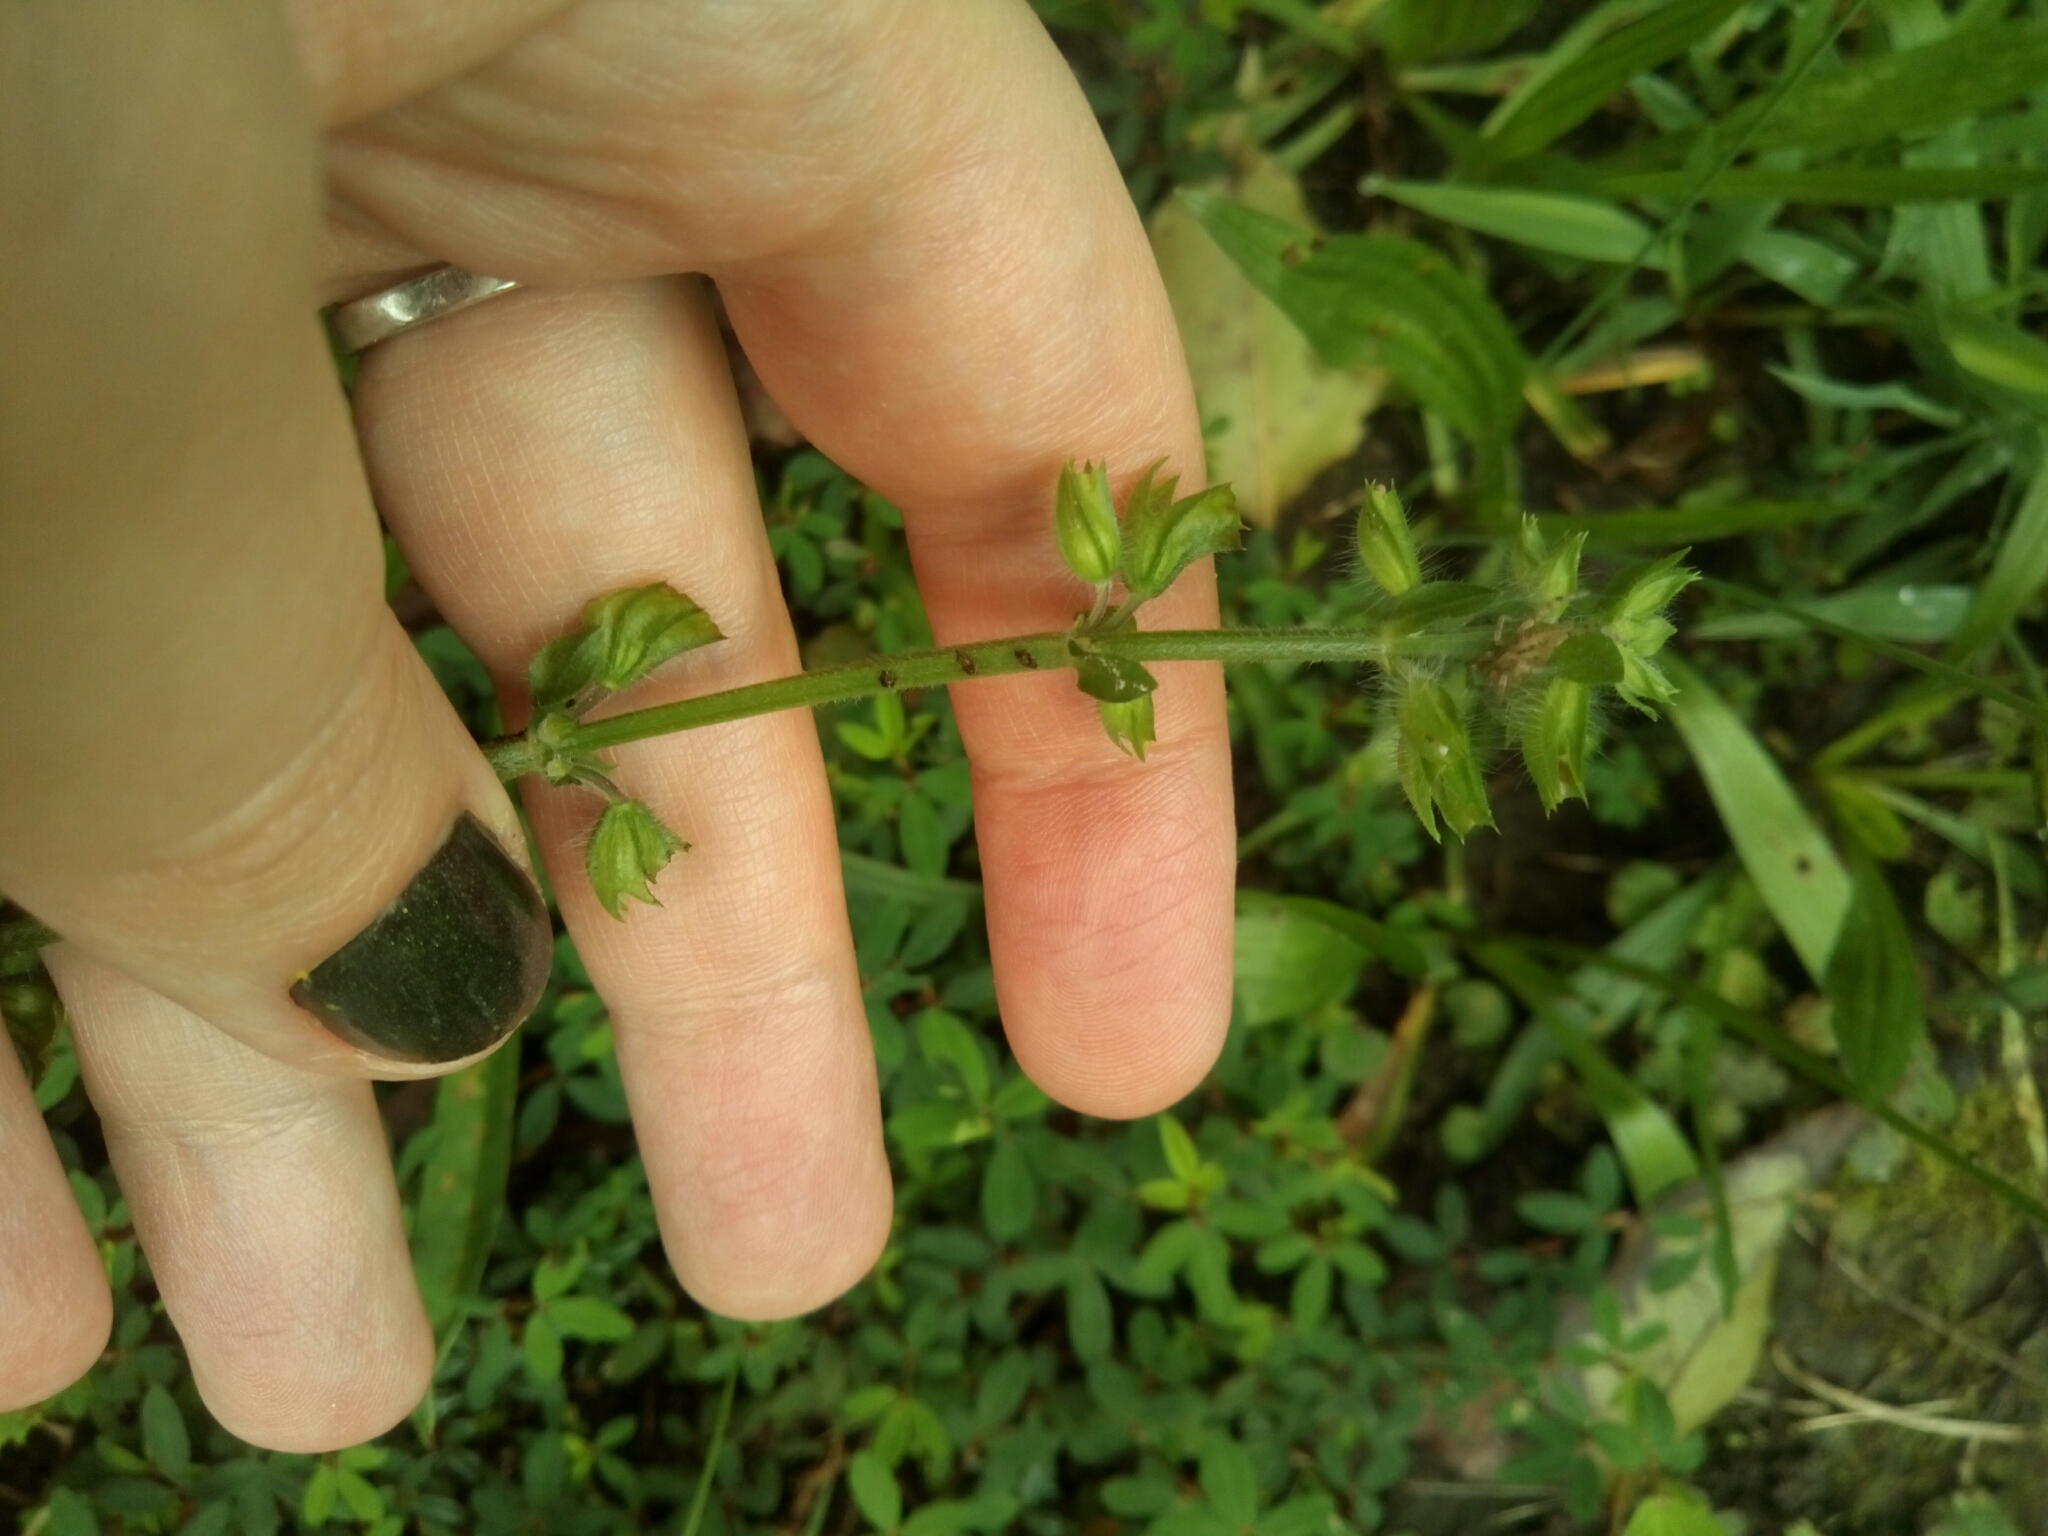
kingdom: Plantae
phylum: Tracheophyta
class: Magnoliopsida
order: Lamiales
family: Lamiaceae
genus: Salvia
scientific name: Salvia lyrata
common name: Cancerweed
